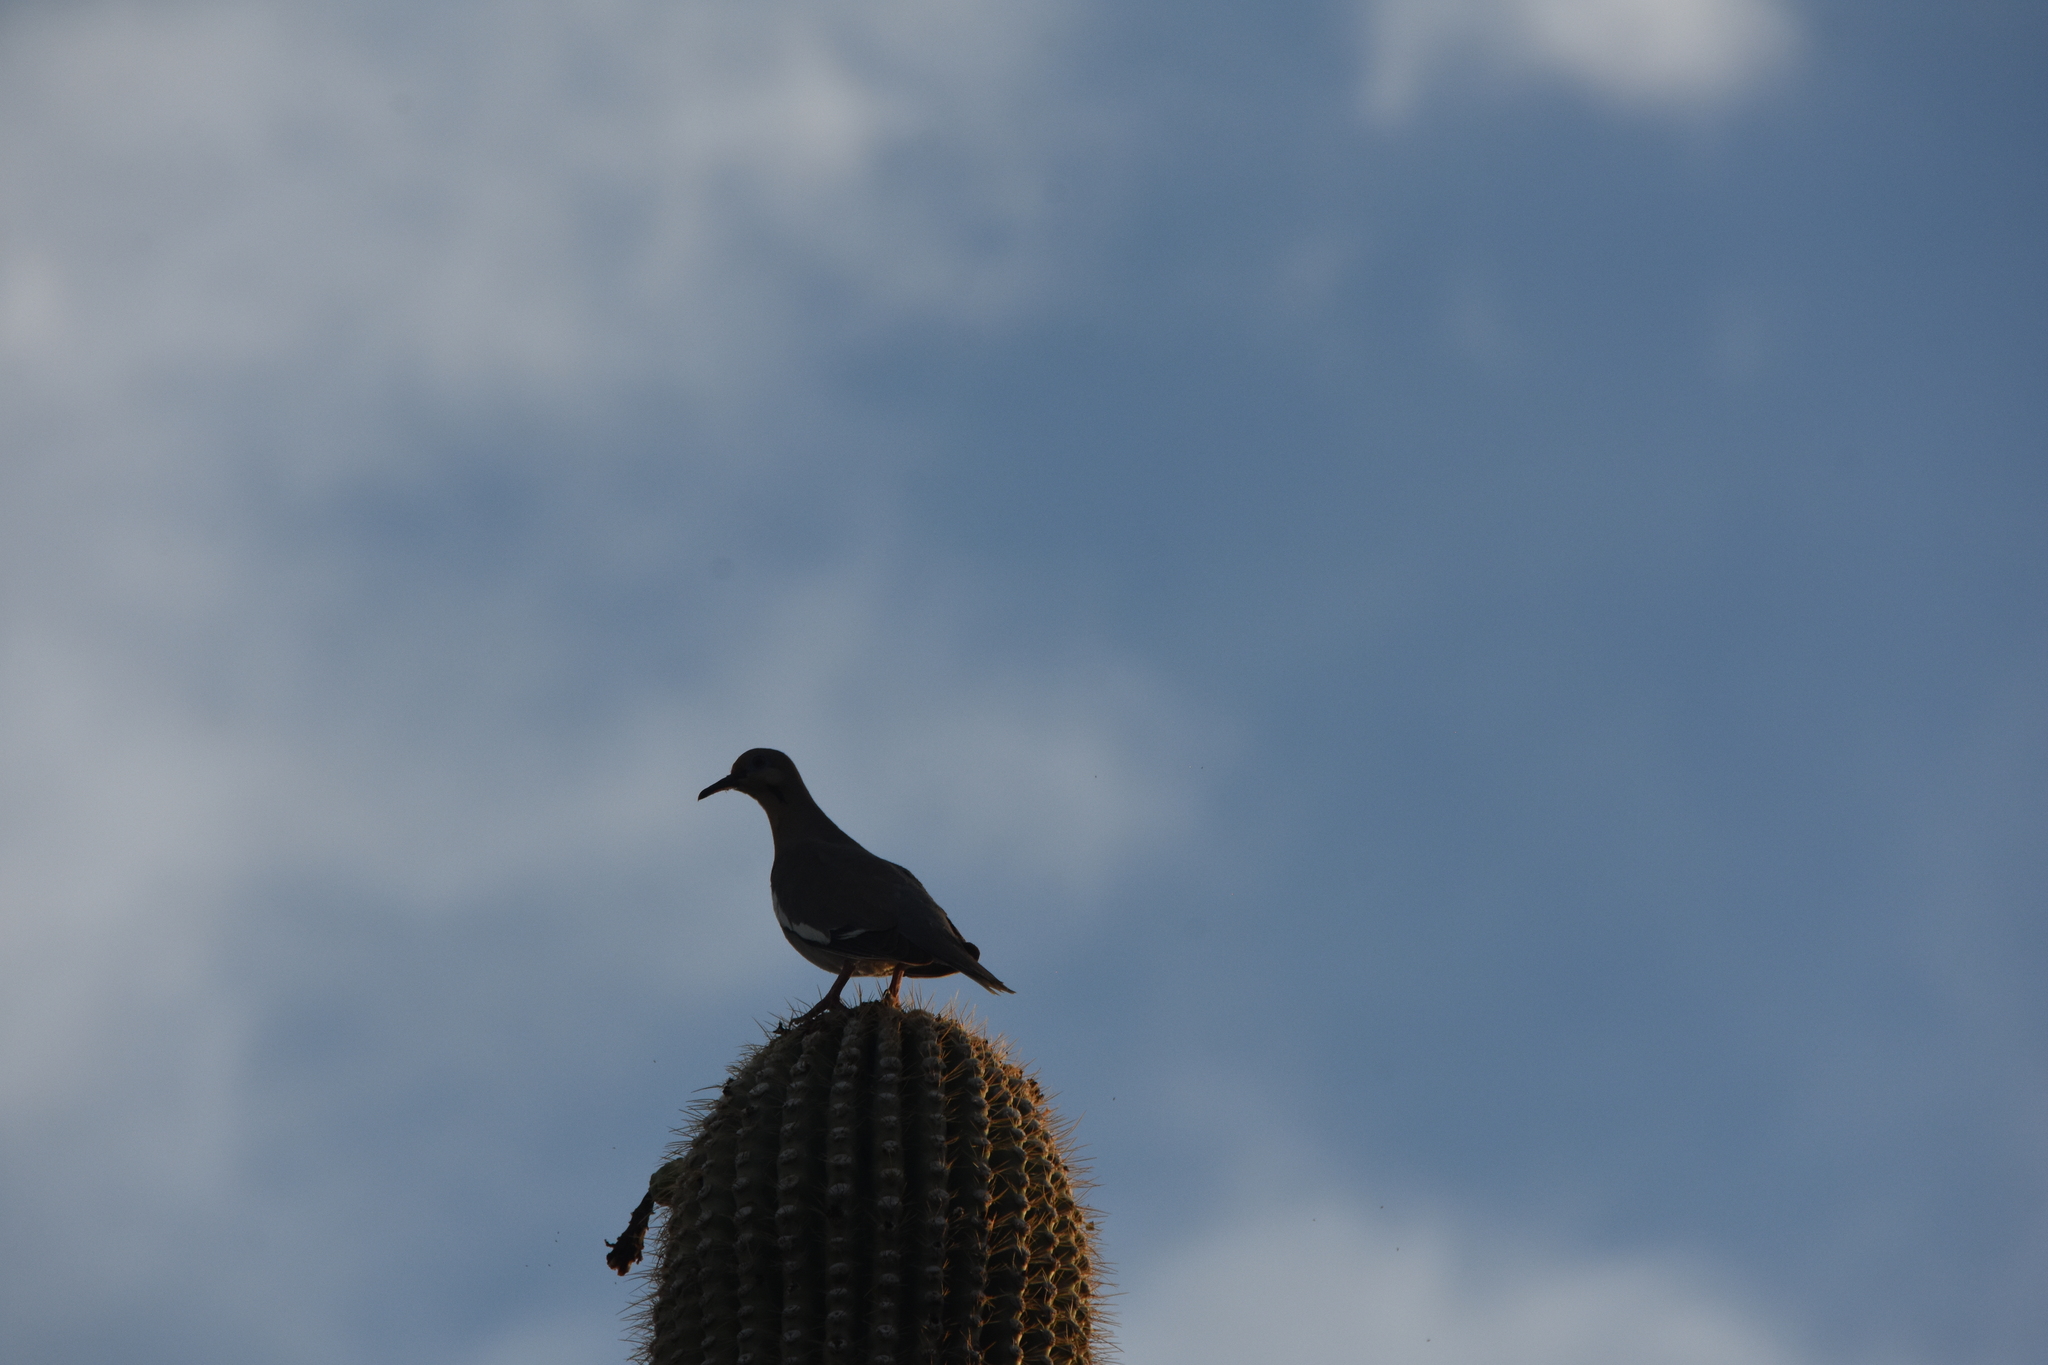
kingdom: Animalia
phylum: Chordata
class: Aves
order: Columbiformes
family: Columbidae
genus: Zenaida
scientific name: Zenaida asiatica
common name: White-winged dove
